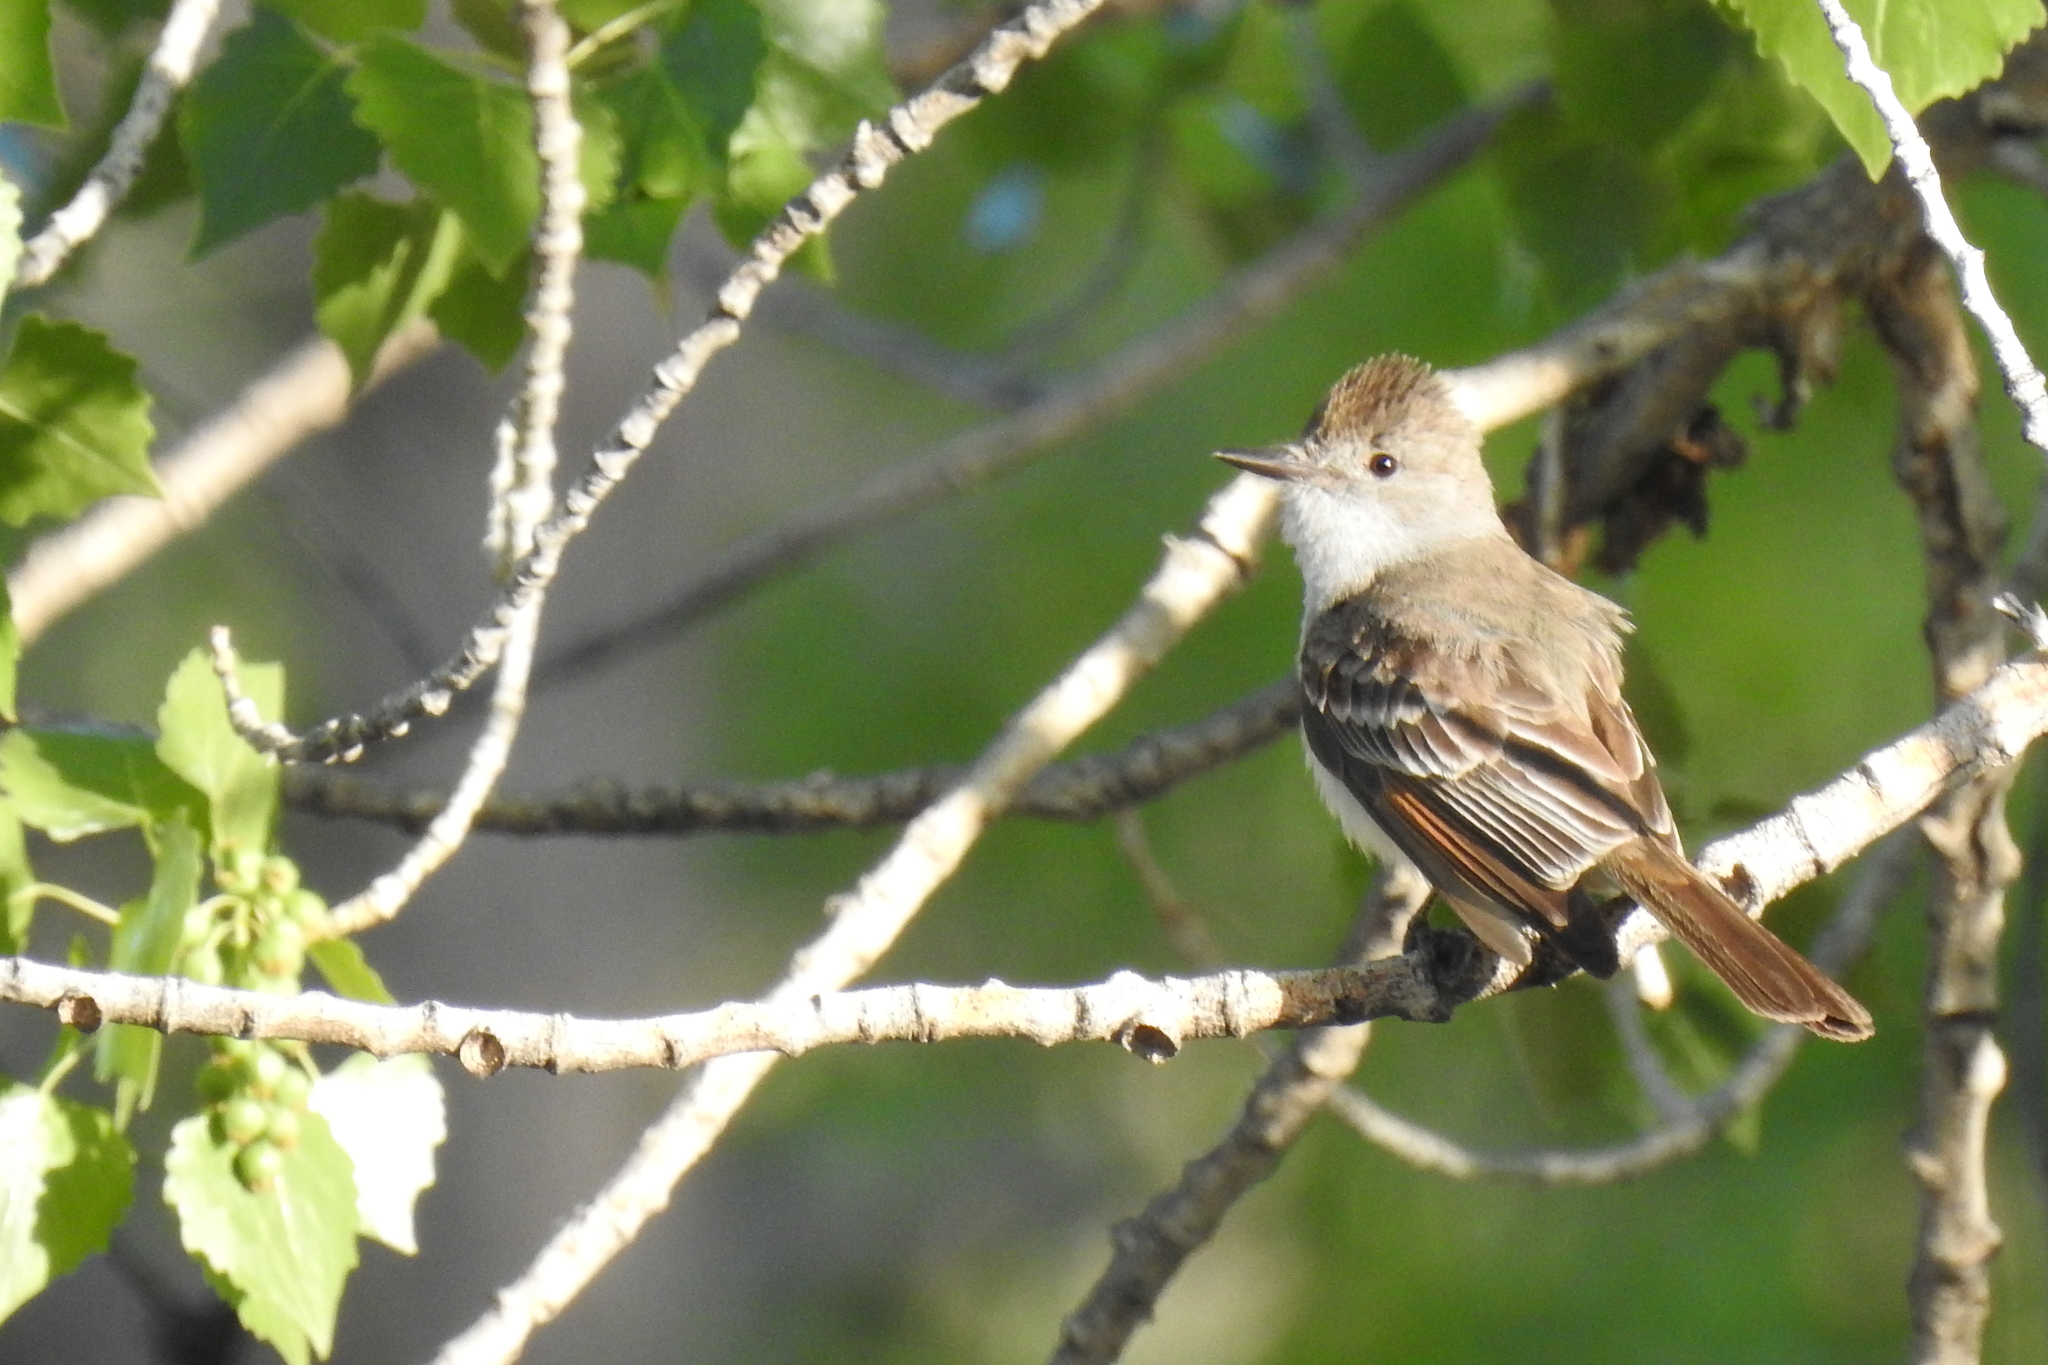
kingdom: Animalia
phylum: Chordata
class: Aves
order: Passeriformes
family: Tyrannidae
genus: Myiarchus
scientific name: Myiarchus cinerascens
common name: Ash-throated flycatcher
